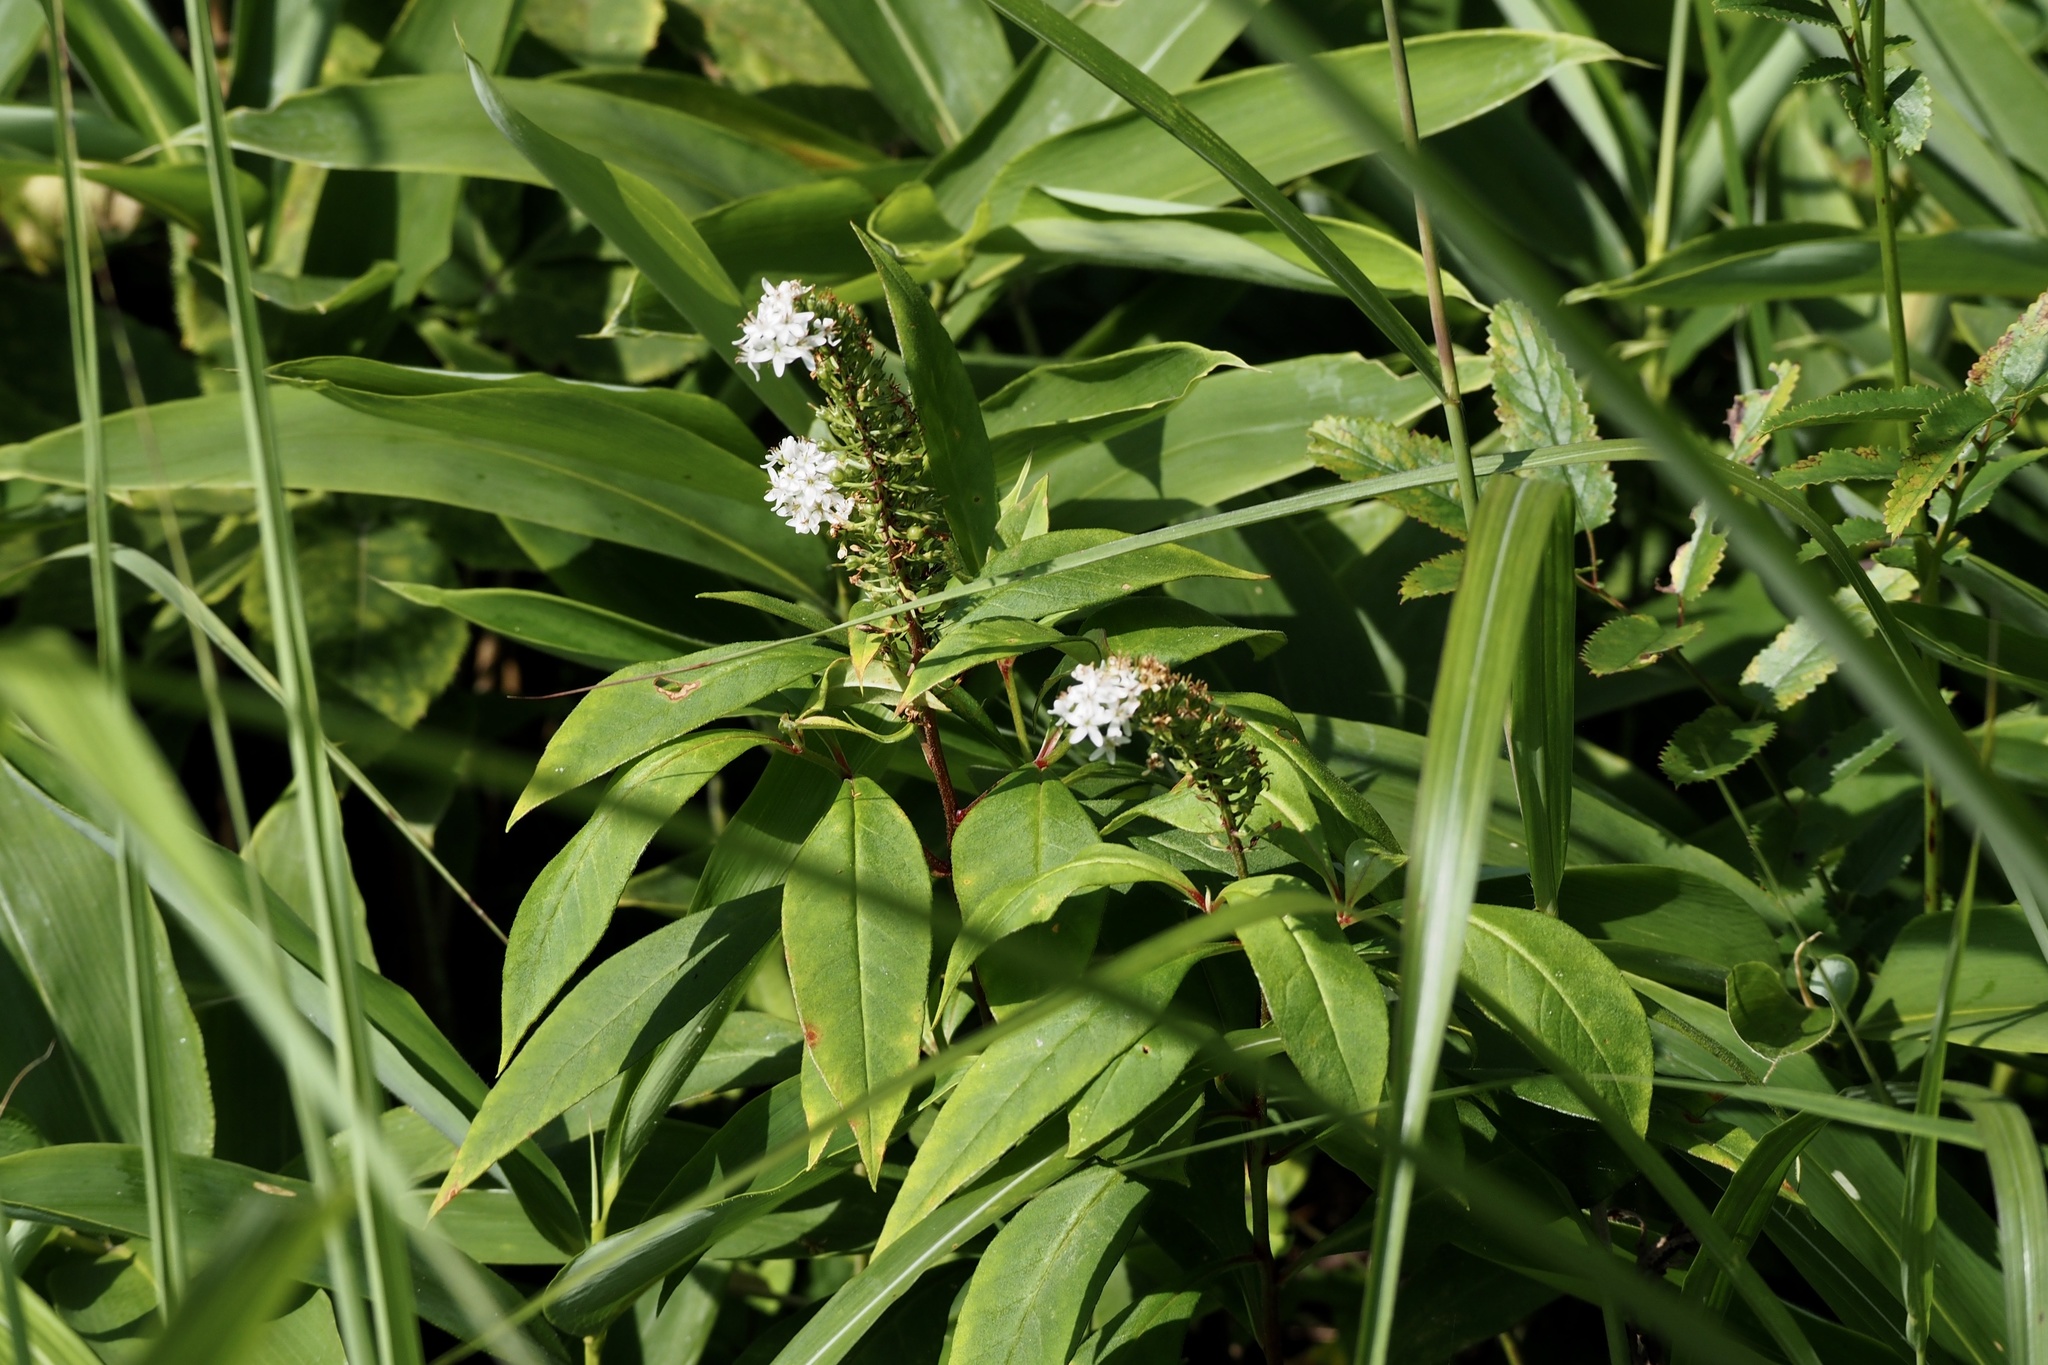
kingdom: Plantae
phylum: Tracheophyta
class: Magnoliopsida
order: Ericales
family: Primulaceae
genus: Lysimachia
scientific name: Lysimachia clethroides
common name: Gooseneck loosestrife
